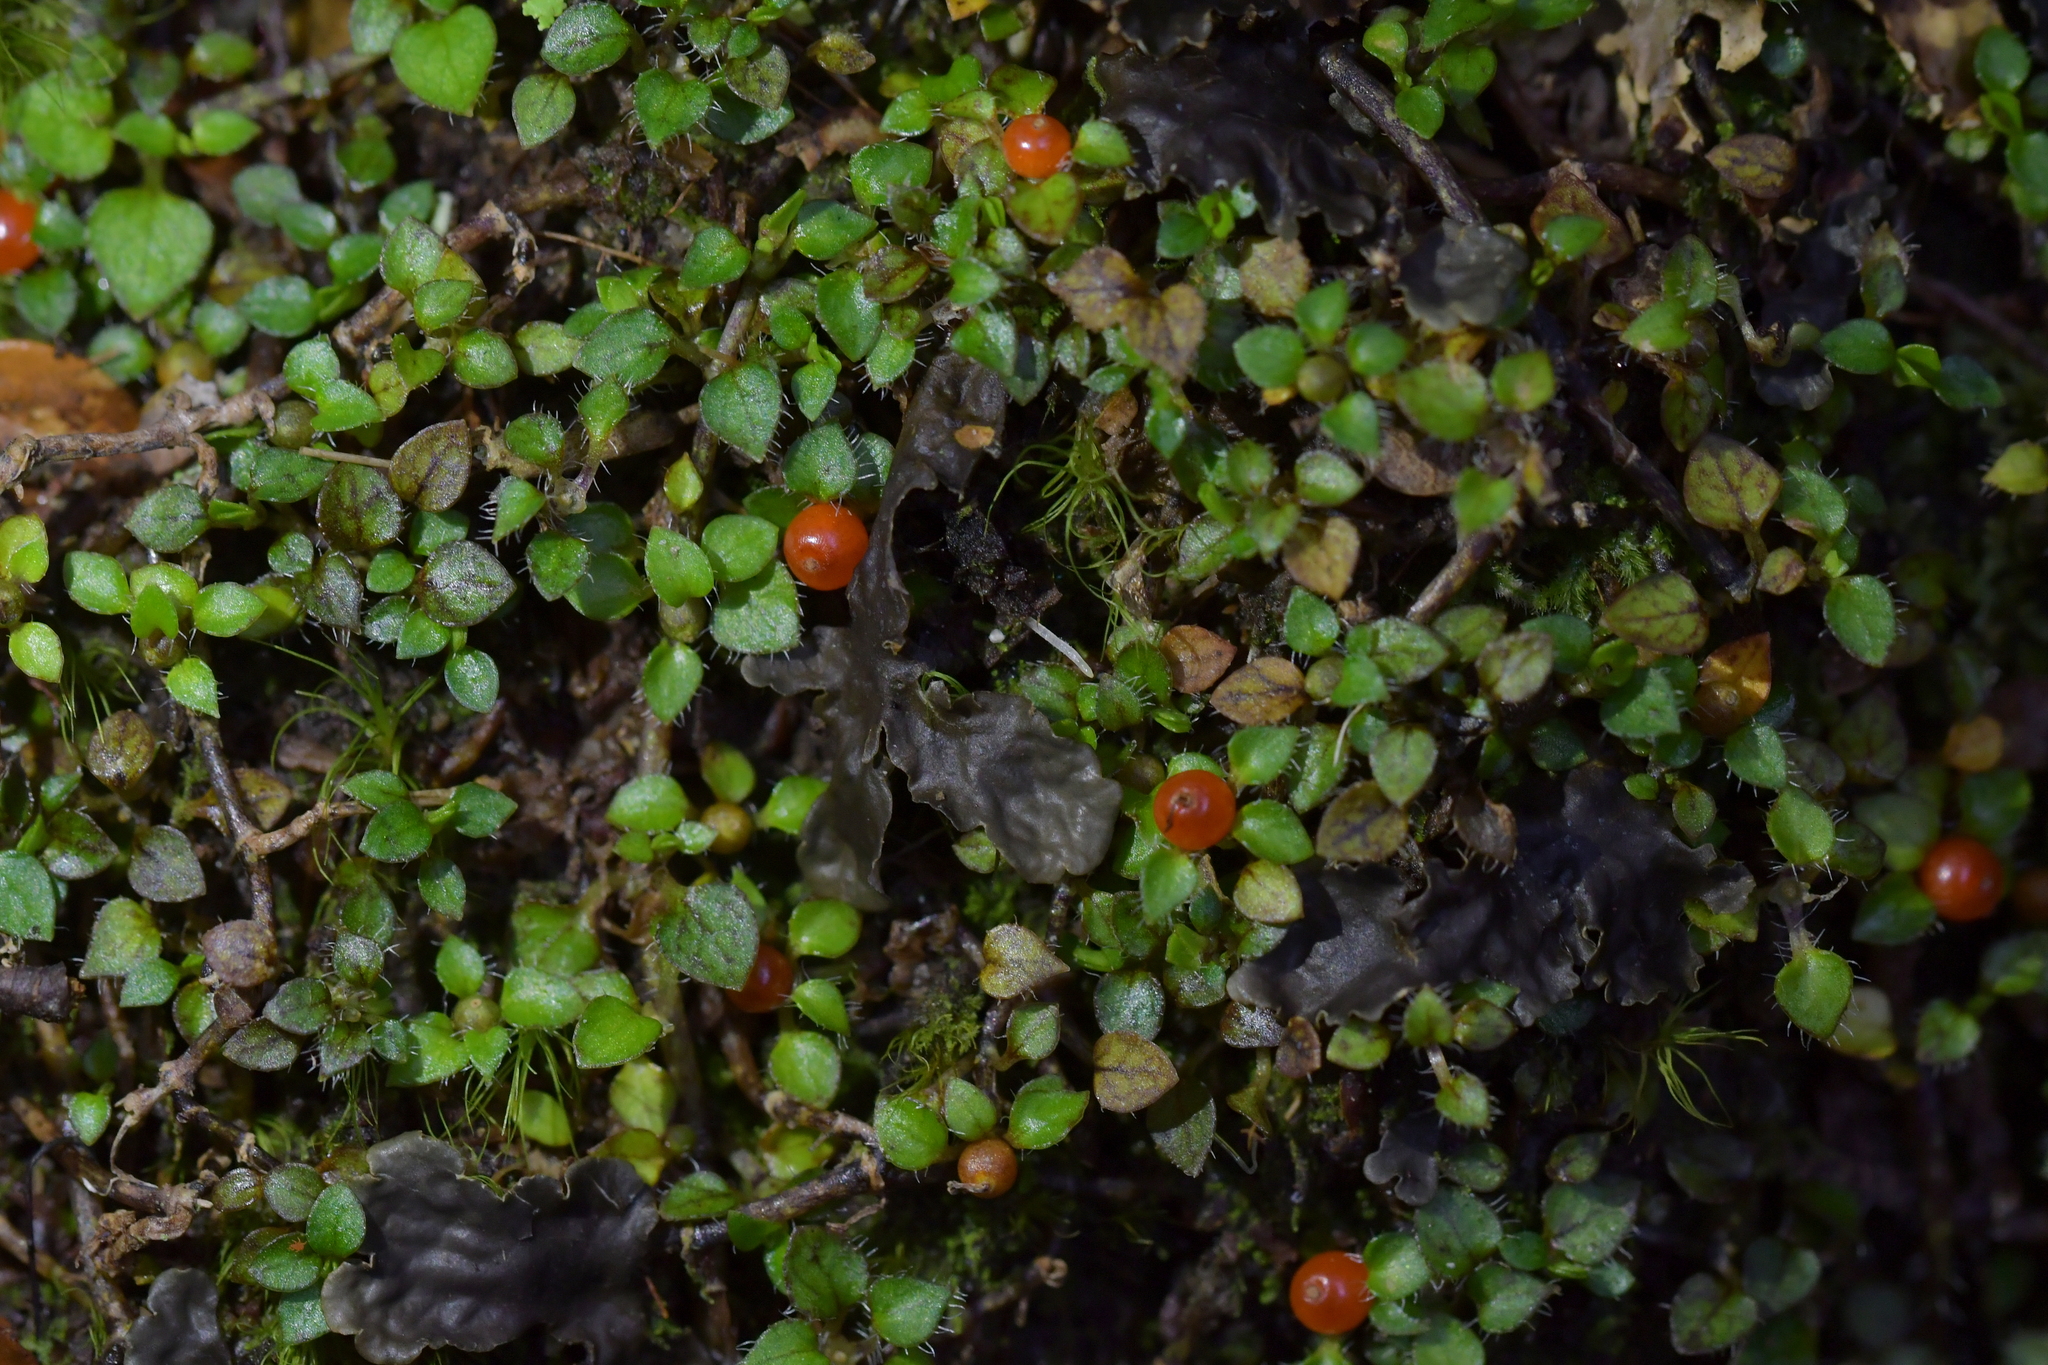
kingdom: Plantae
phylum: Tracheophyta
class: Magnoliopsida
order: Gentianales
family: Rubiaceae
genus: Nertera
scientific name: Nertera ciliata
